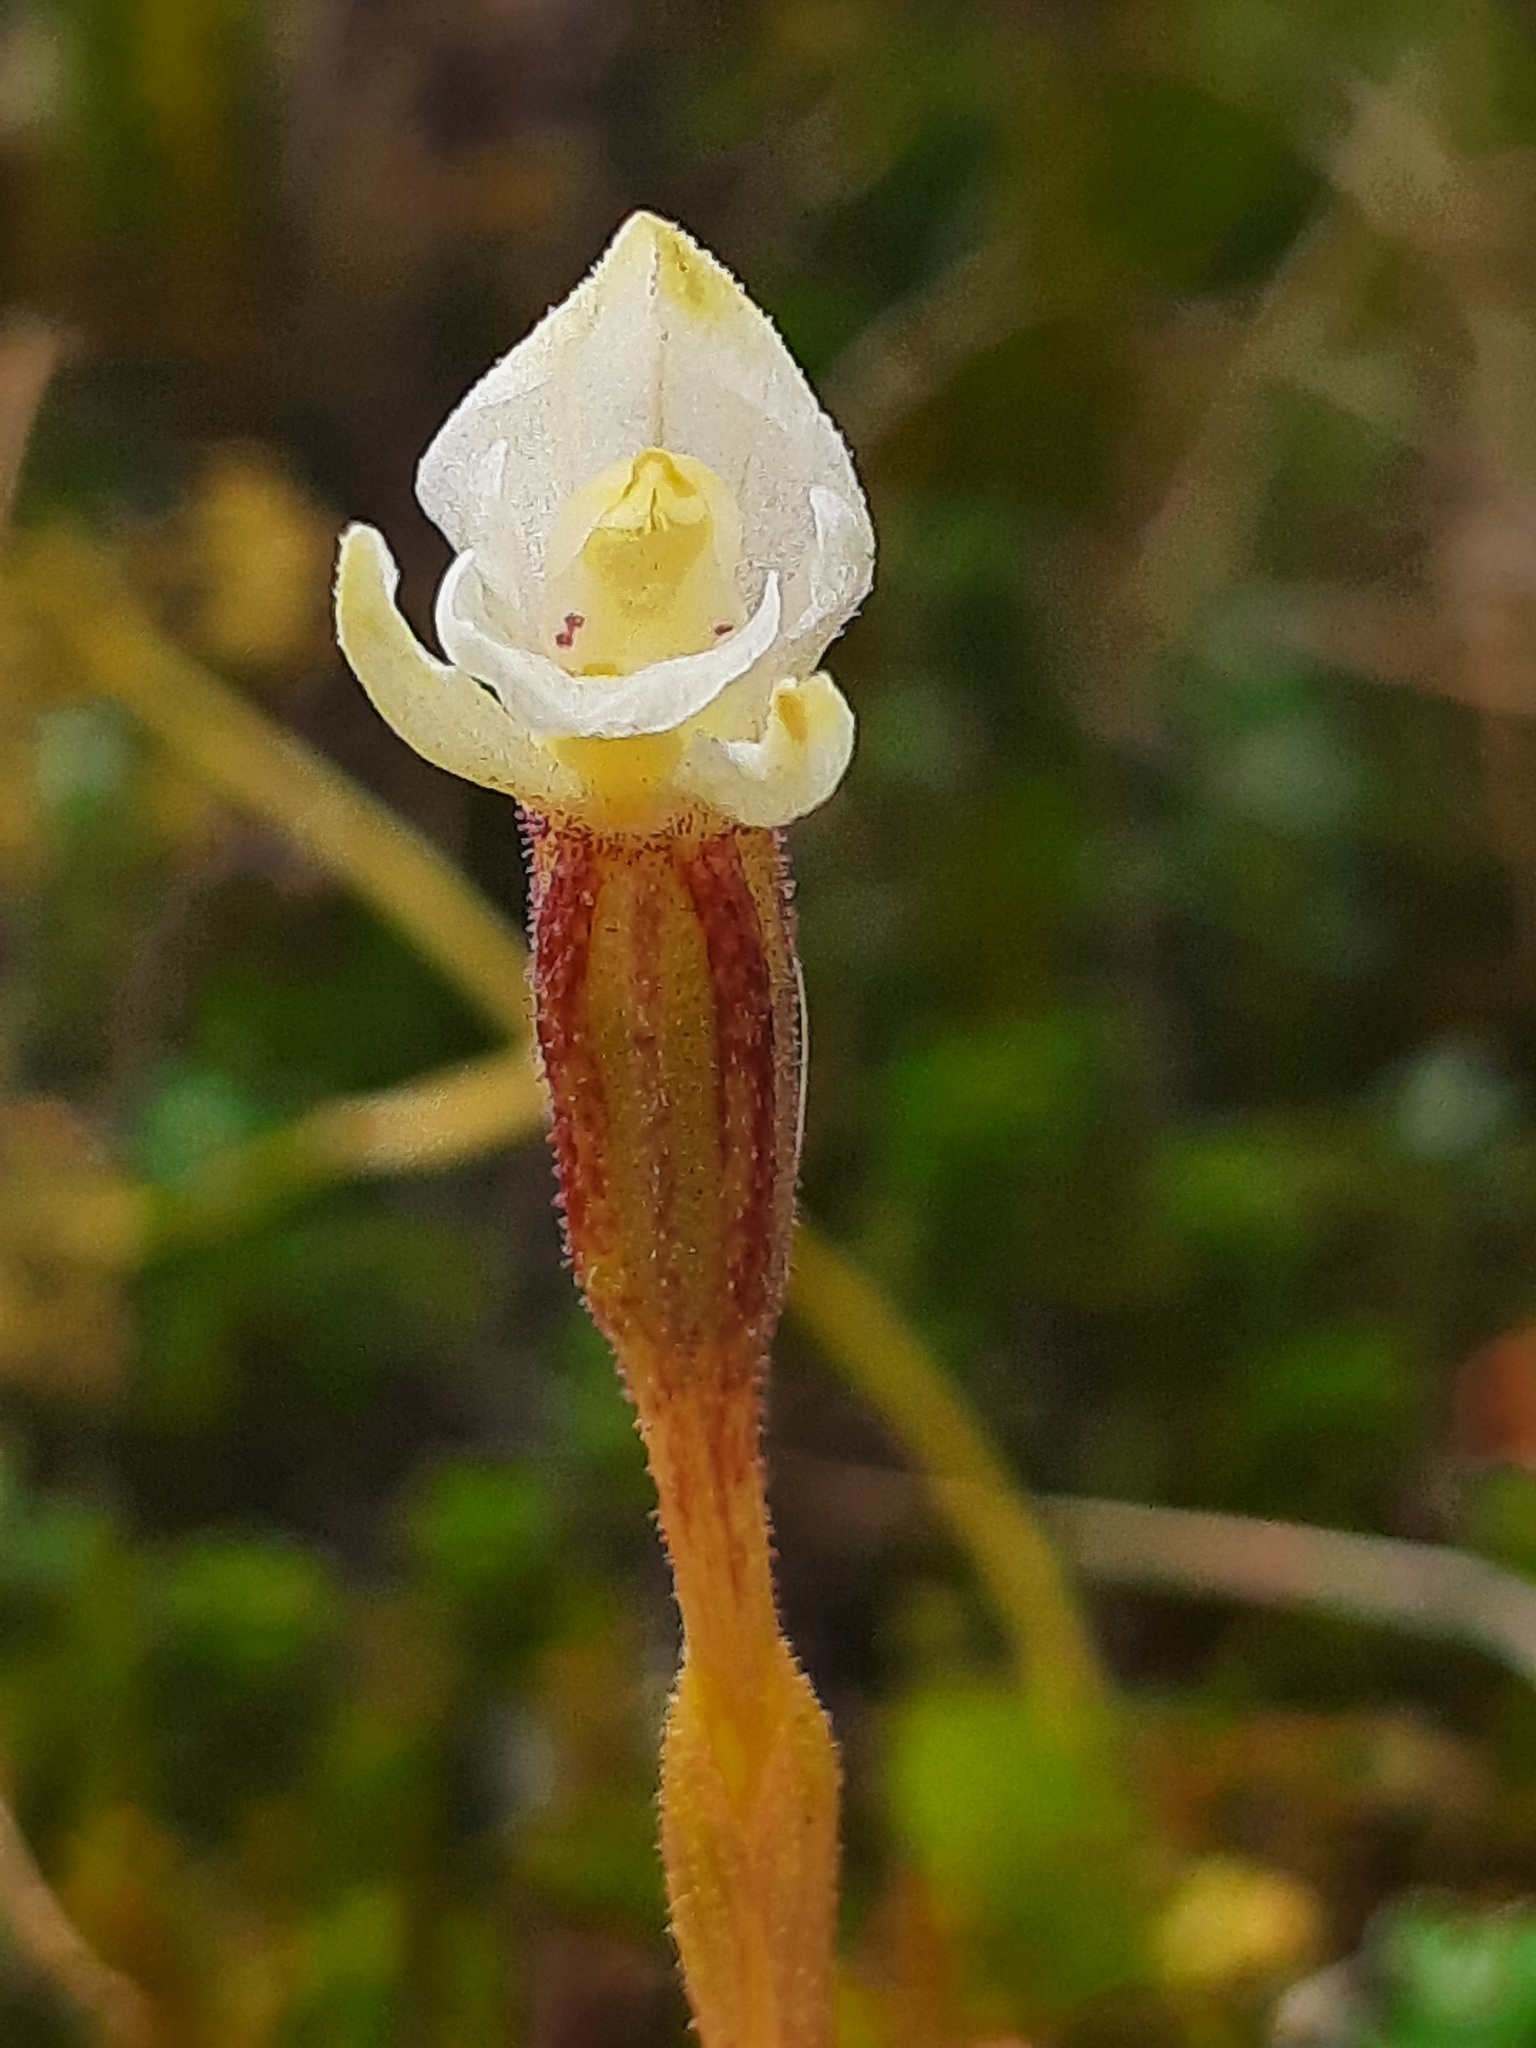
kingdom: Plantae
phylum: Tracheophyta
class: Liliopsida
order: Asparagales
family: Orchidaceae
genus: Aporostylis
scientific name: Aporostylis bifolia
